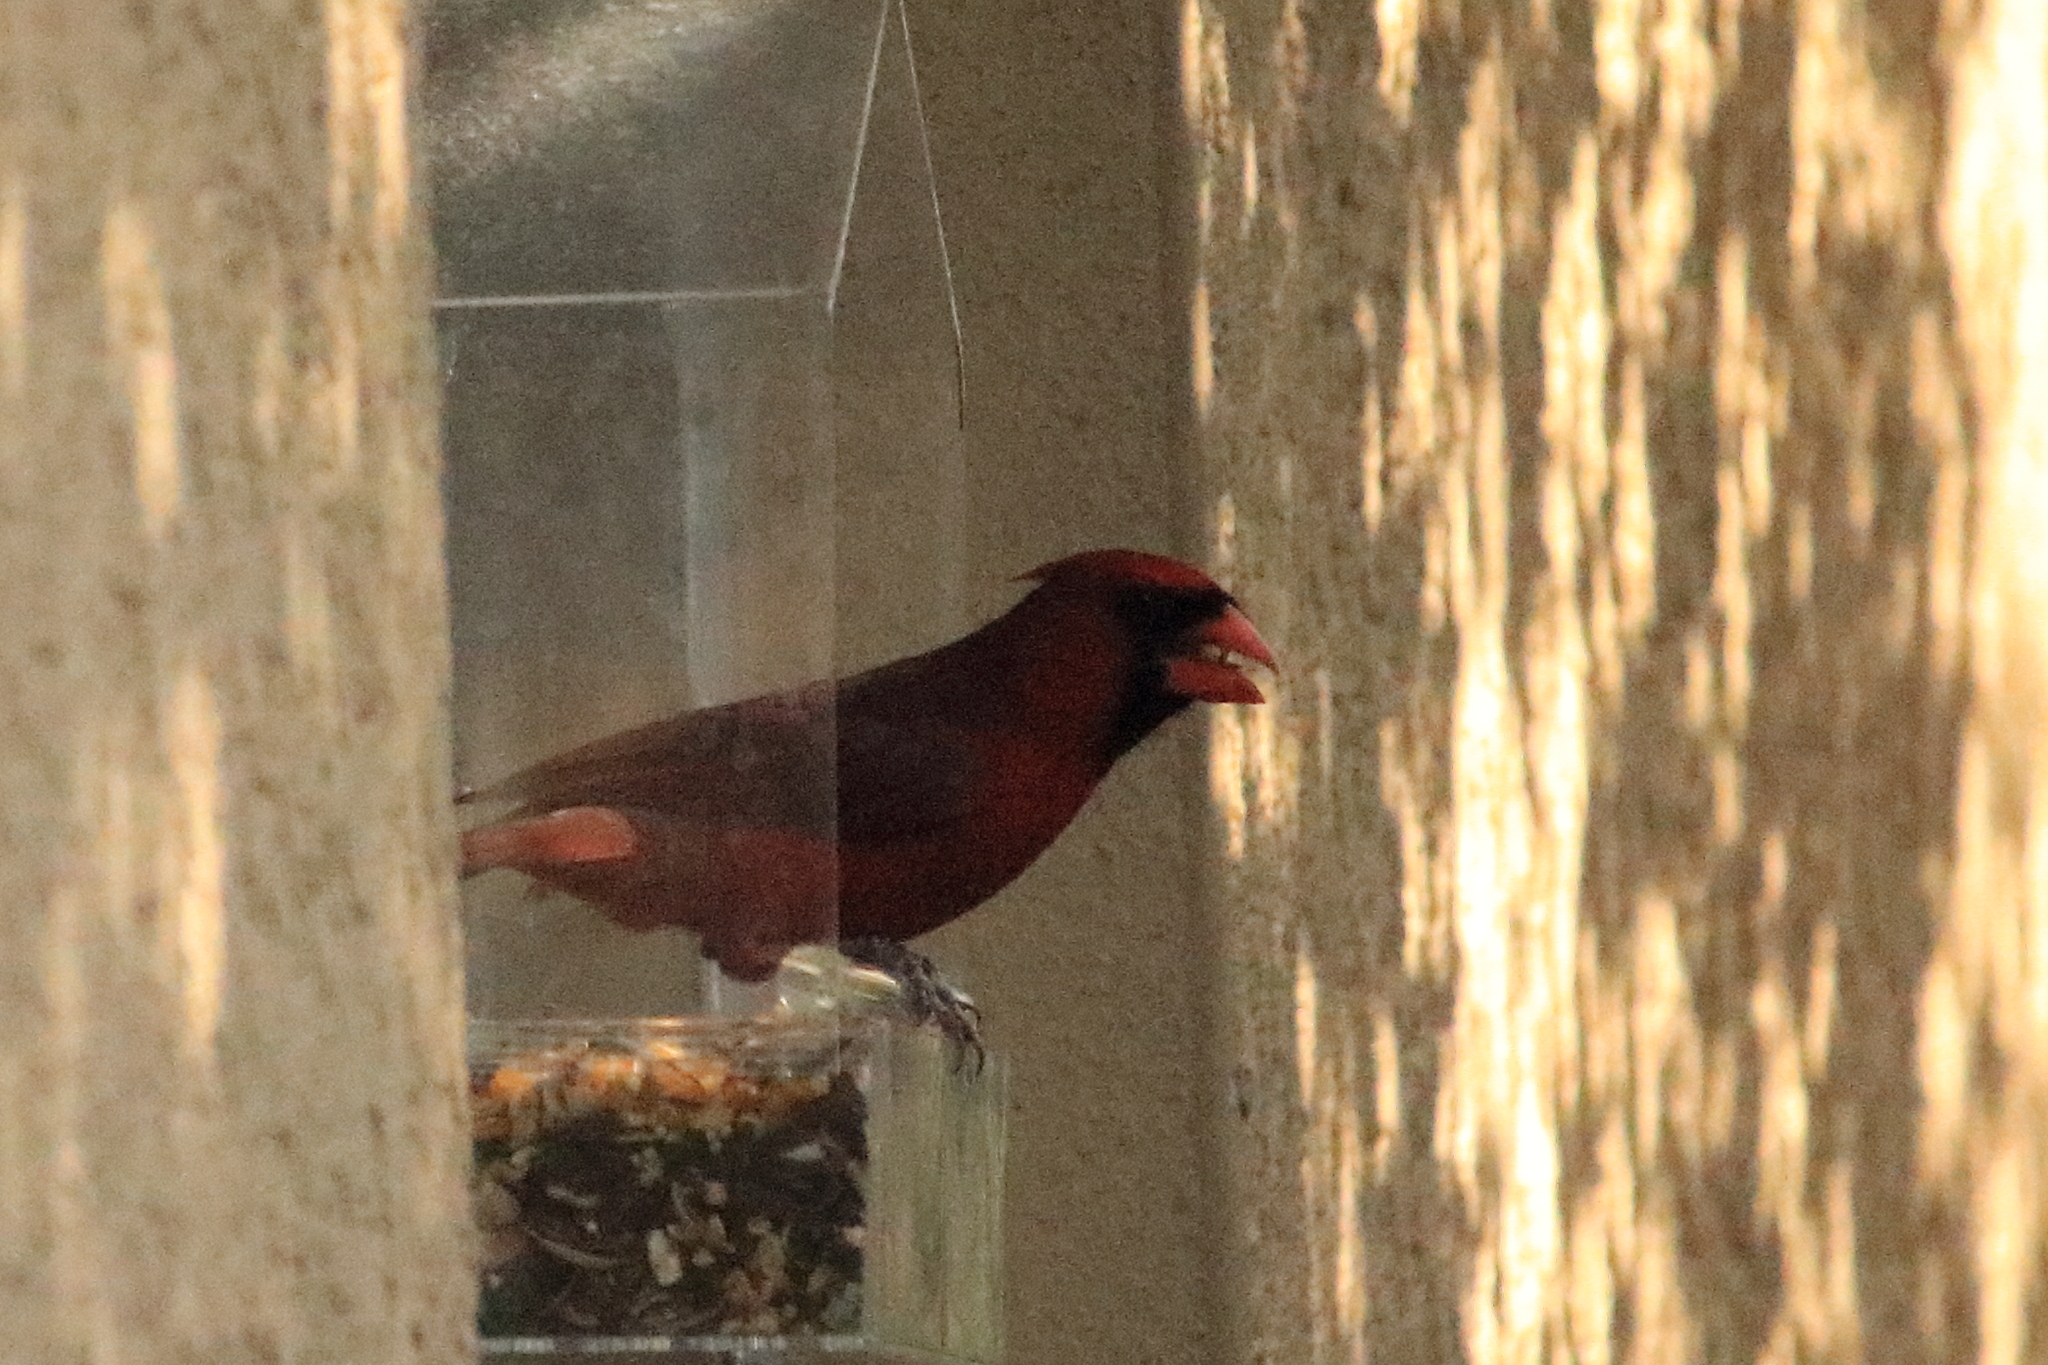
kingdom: Animalia
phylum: Chordata
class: Aves
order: Passeriformes
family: Cardinalidae
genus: Cardinalis
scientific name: Cardinalis cardinalis
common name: Northern cardinal
